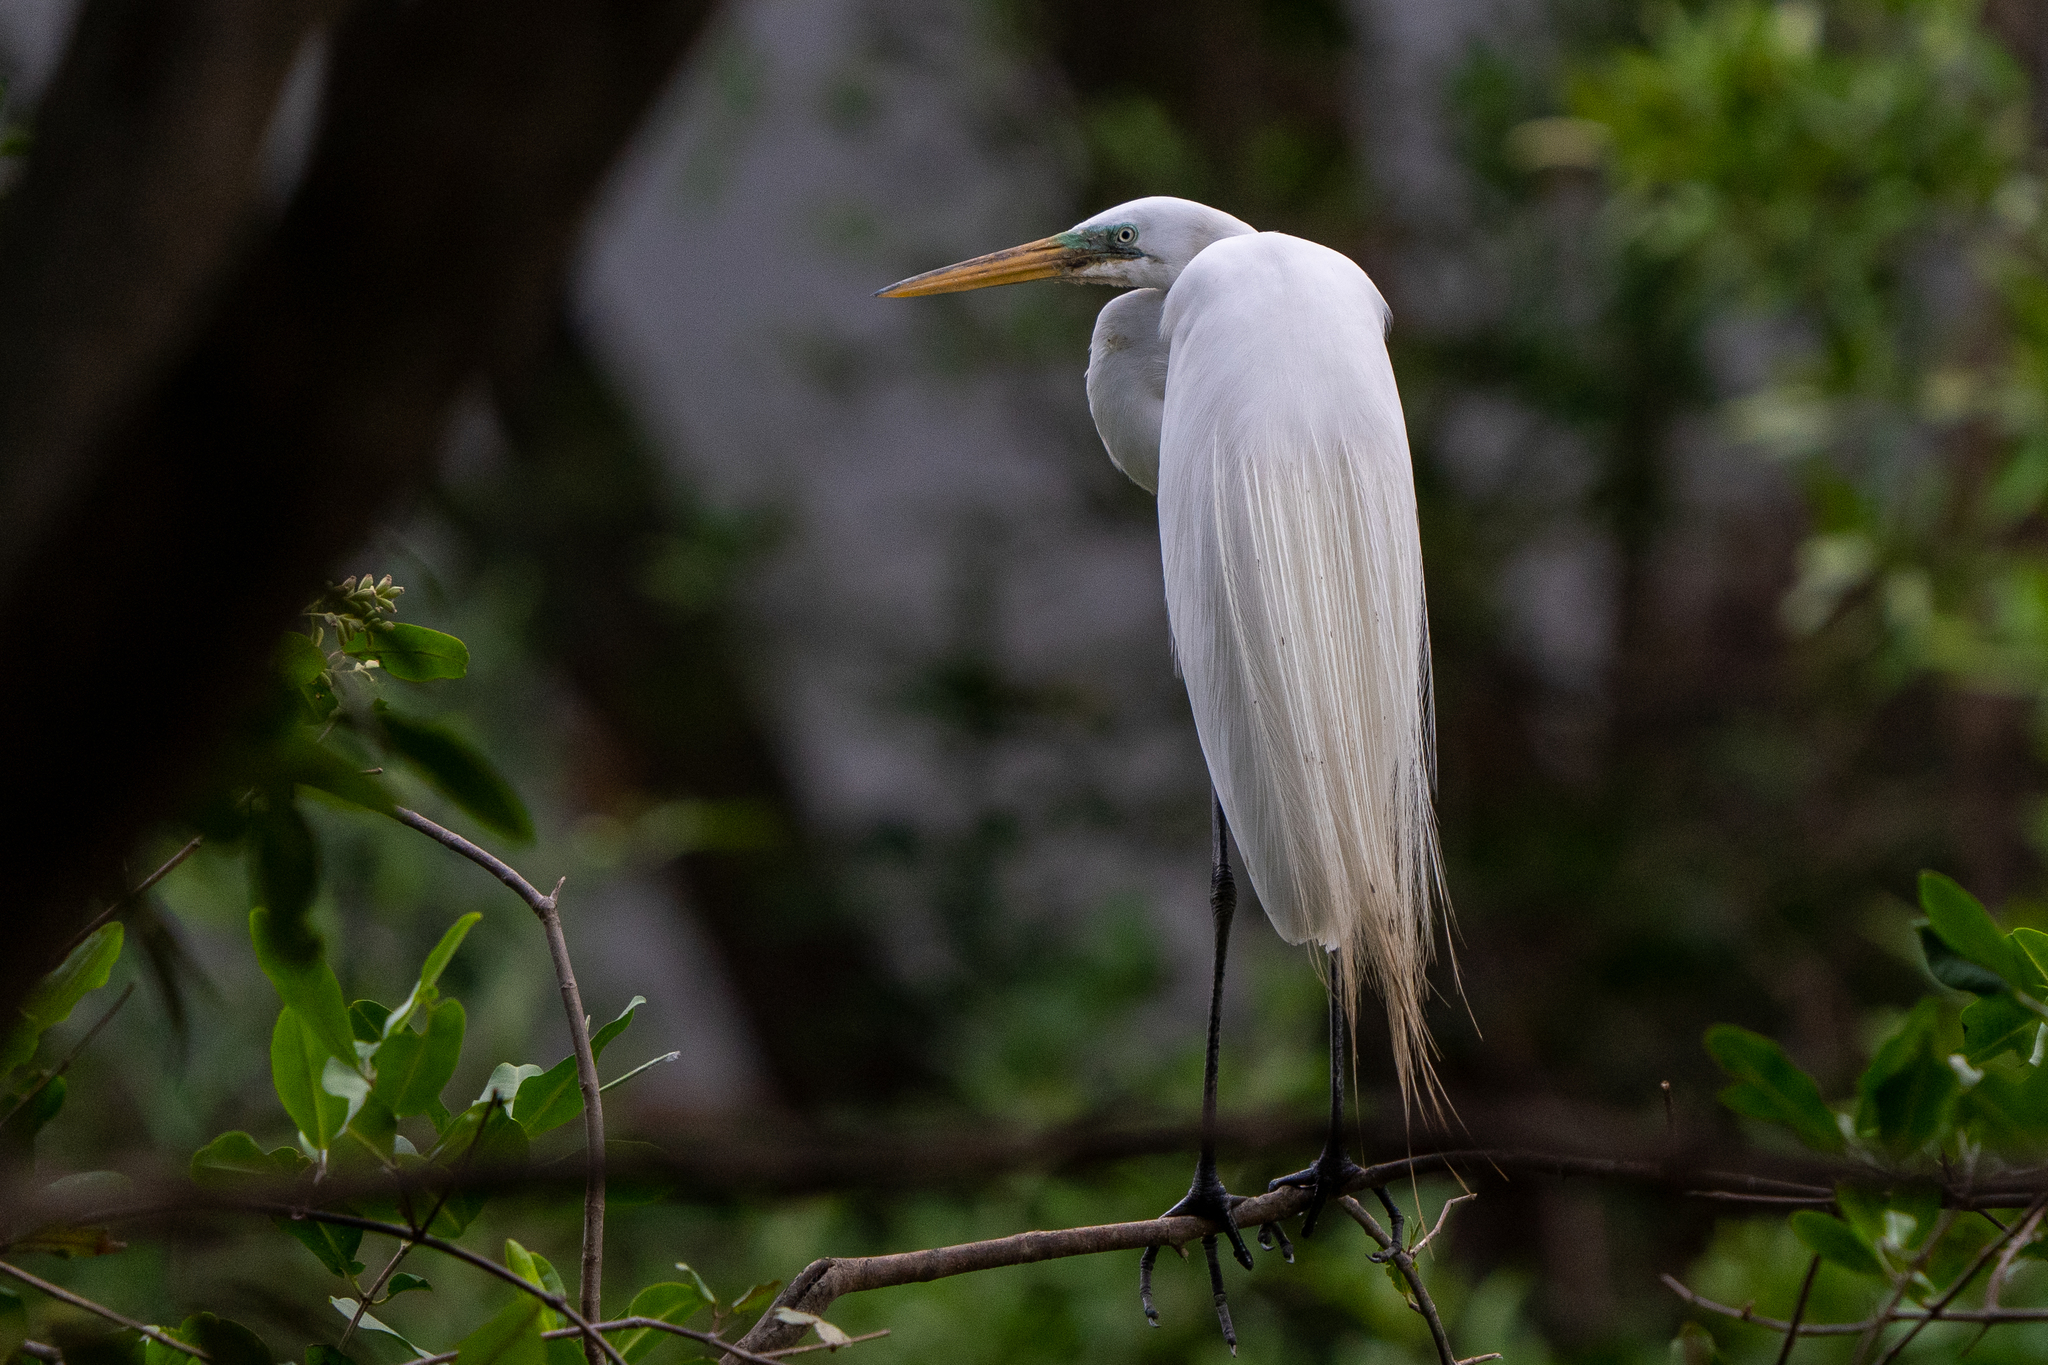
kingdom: Animalia
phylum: Chordata
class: Aves
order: Pelecaniformes
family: Ardeidae
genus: Ardea
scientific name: Ardea alba
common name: Great egret
